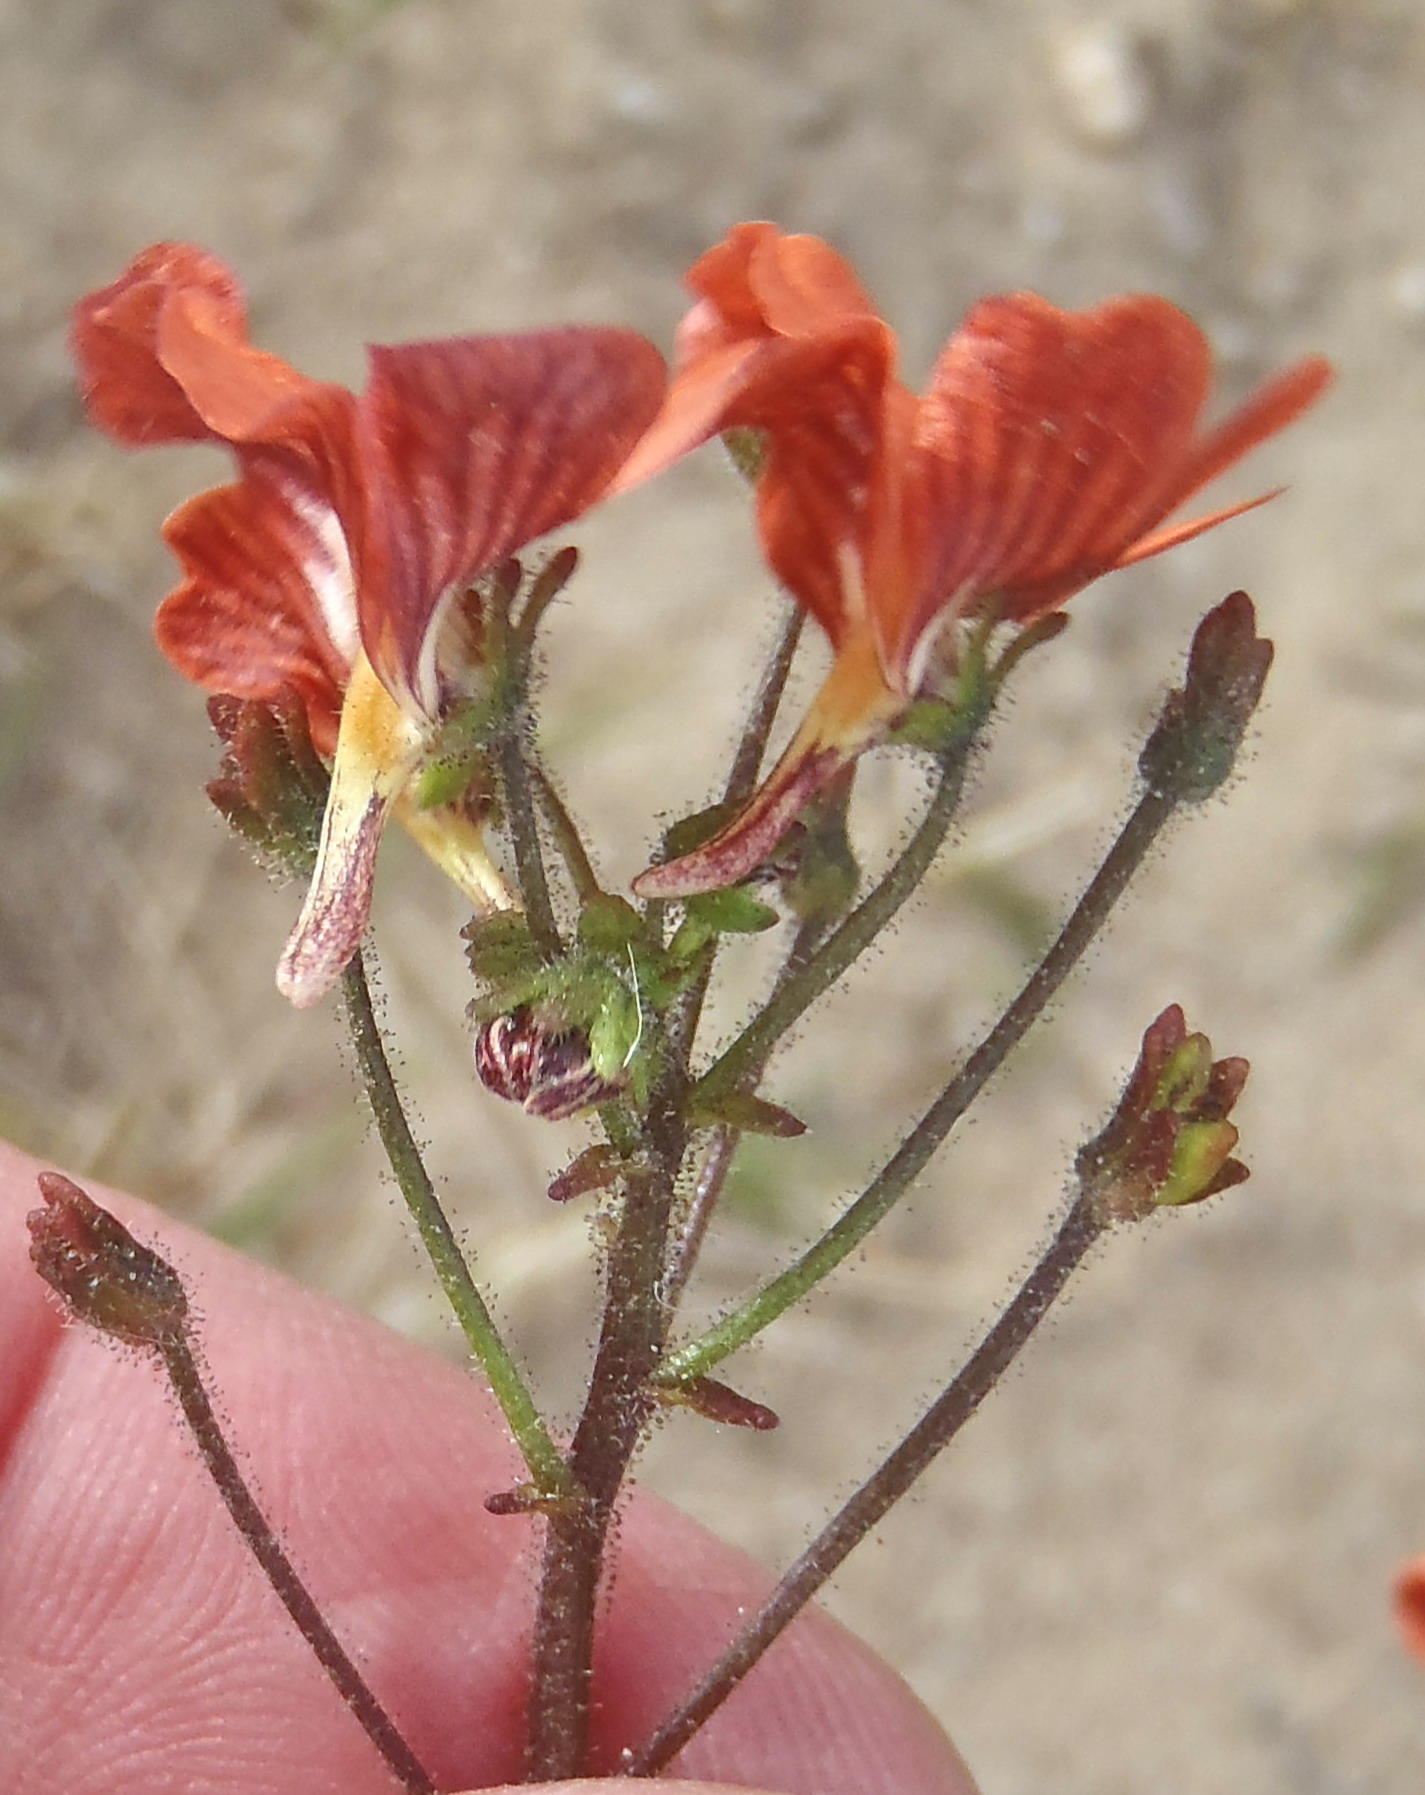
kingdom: Plantae
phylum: Tracheophyta
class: Magnoliopsida
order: Lamiales
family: Scrophulariaceae
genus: Nemesia
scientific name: Nemesia affinis
